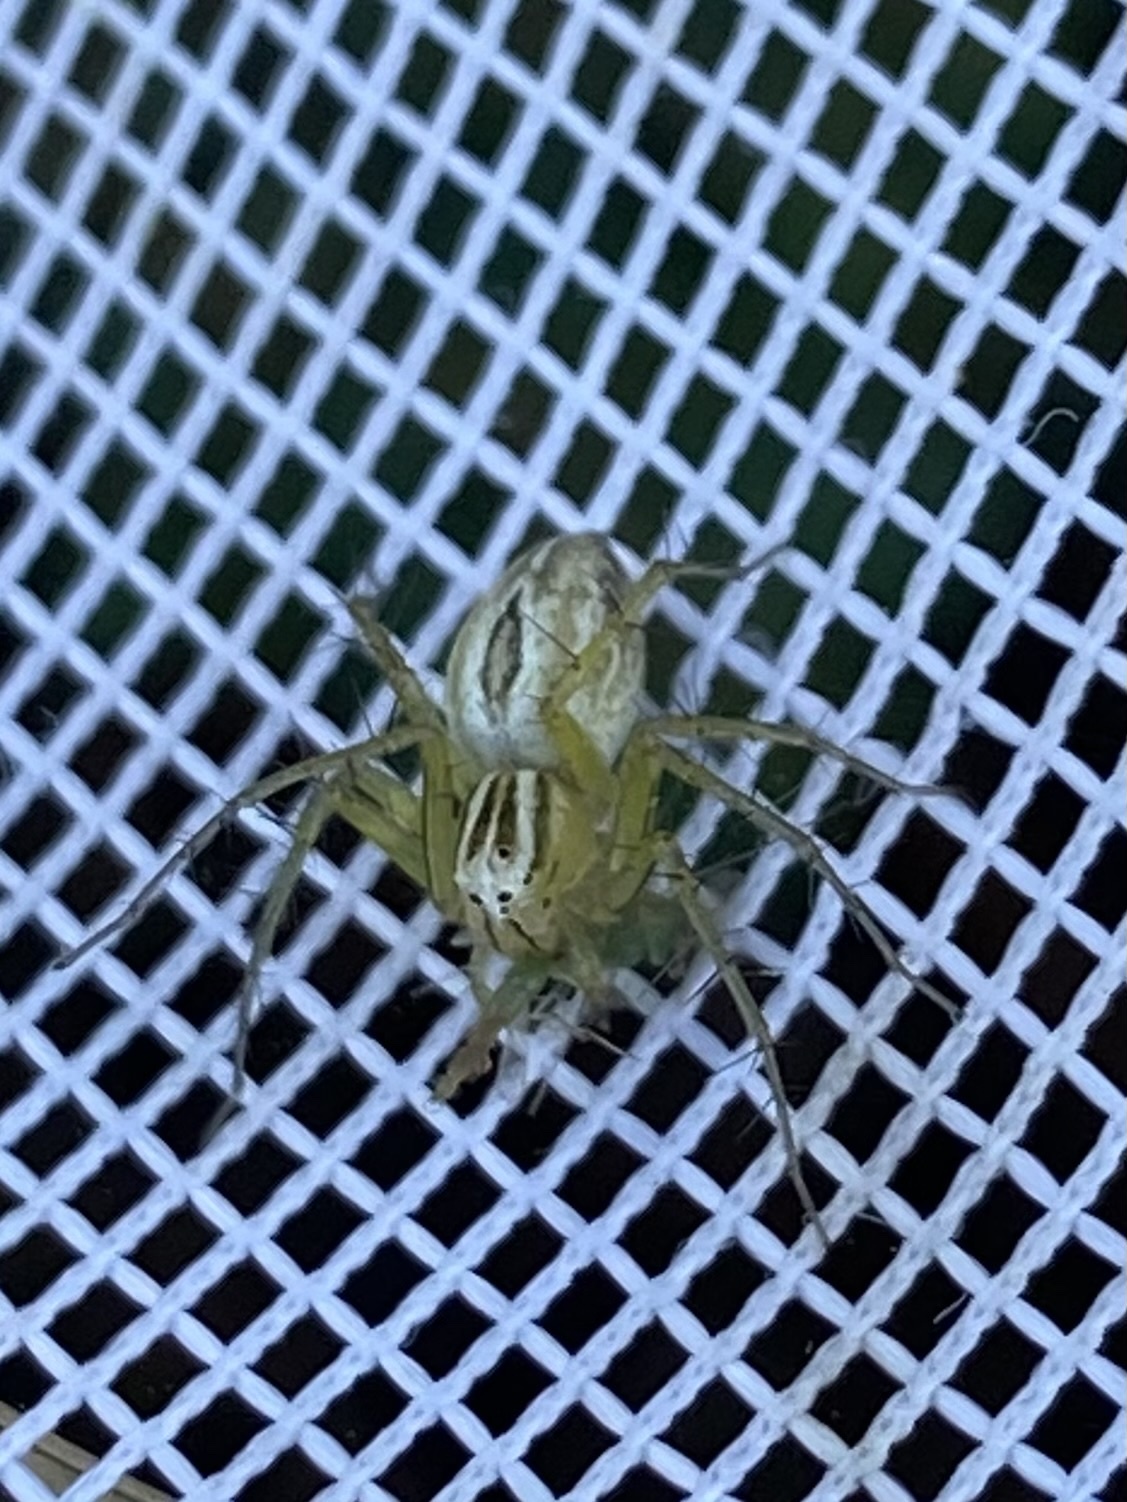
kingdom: Animalia
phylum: Arthropoda
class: Arachnida
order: Araneae
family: Oxyopidae
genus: Oxyopes
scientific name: Oxyopes salticus
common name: Lynx spiders
